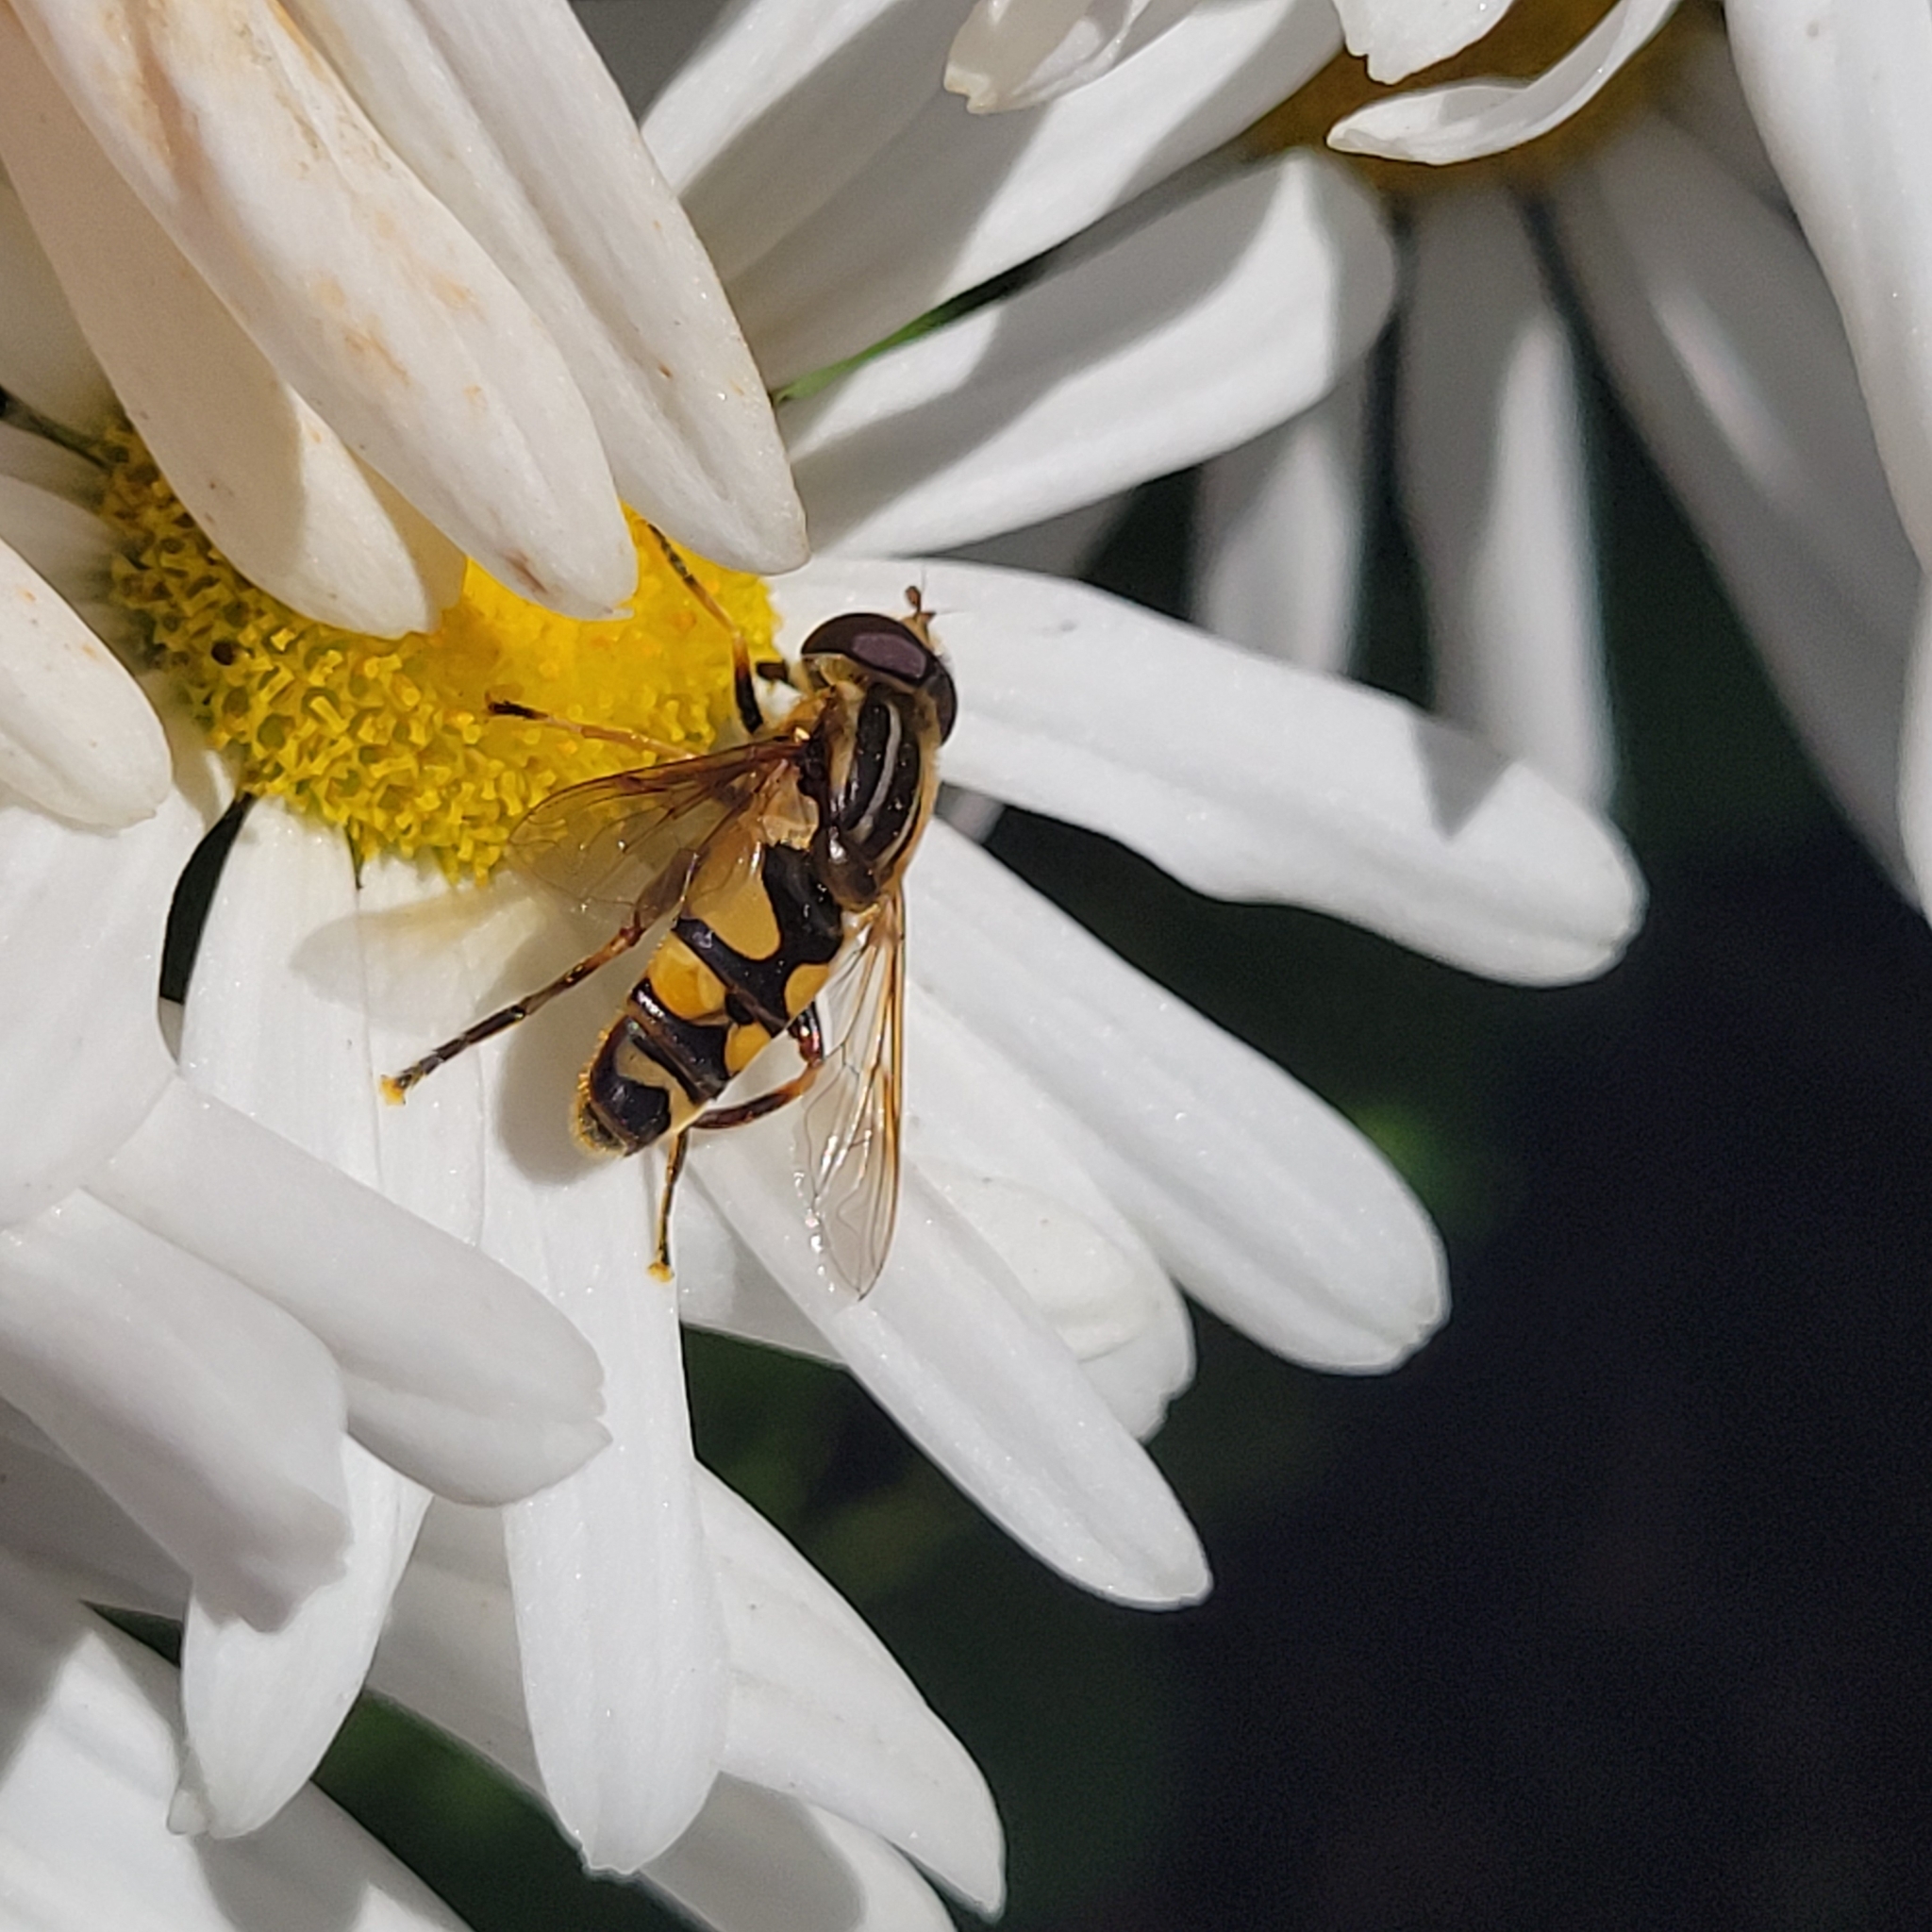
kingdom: Animalia
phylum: Arthropoda
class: Insecta
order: Diptera
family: Syrphidae
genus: Helophilus
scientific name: Helophilus fasciatus
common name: Narrow-headed marsh fly
